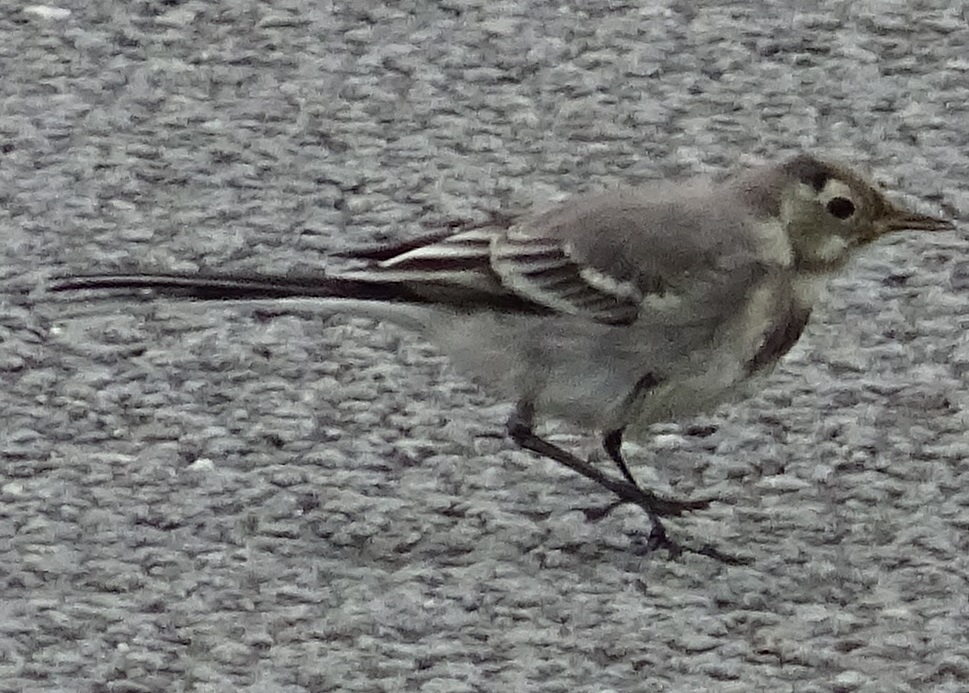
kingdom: Animalia
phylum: Chordata
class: Aves
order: Passeriformes
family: Motacillidae
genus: Motacilla
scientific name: Motacilla alba
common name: White wagtail
